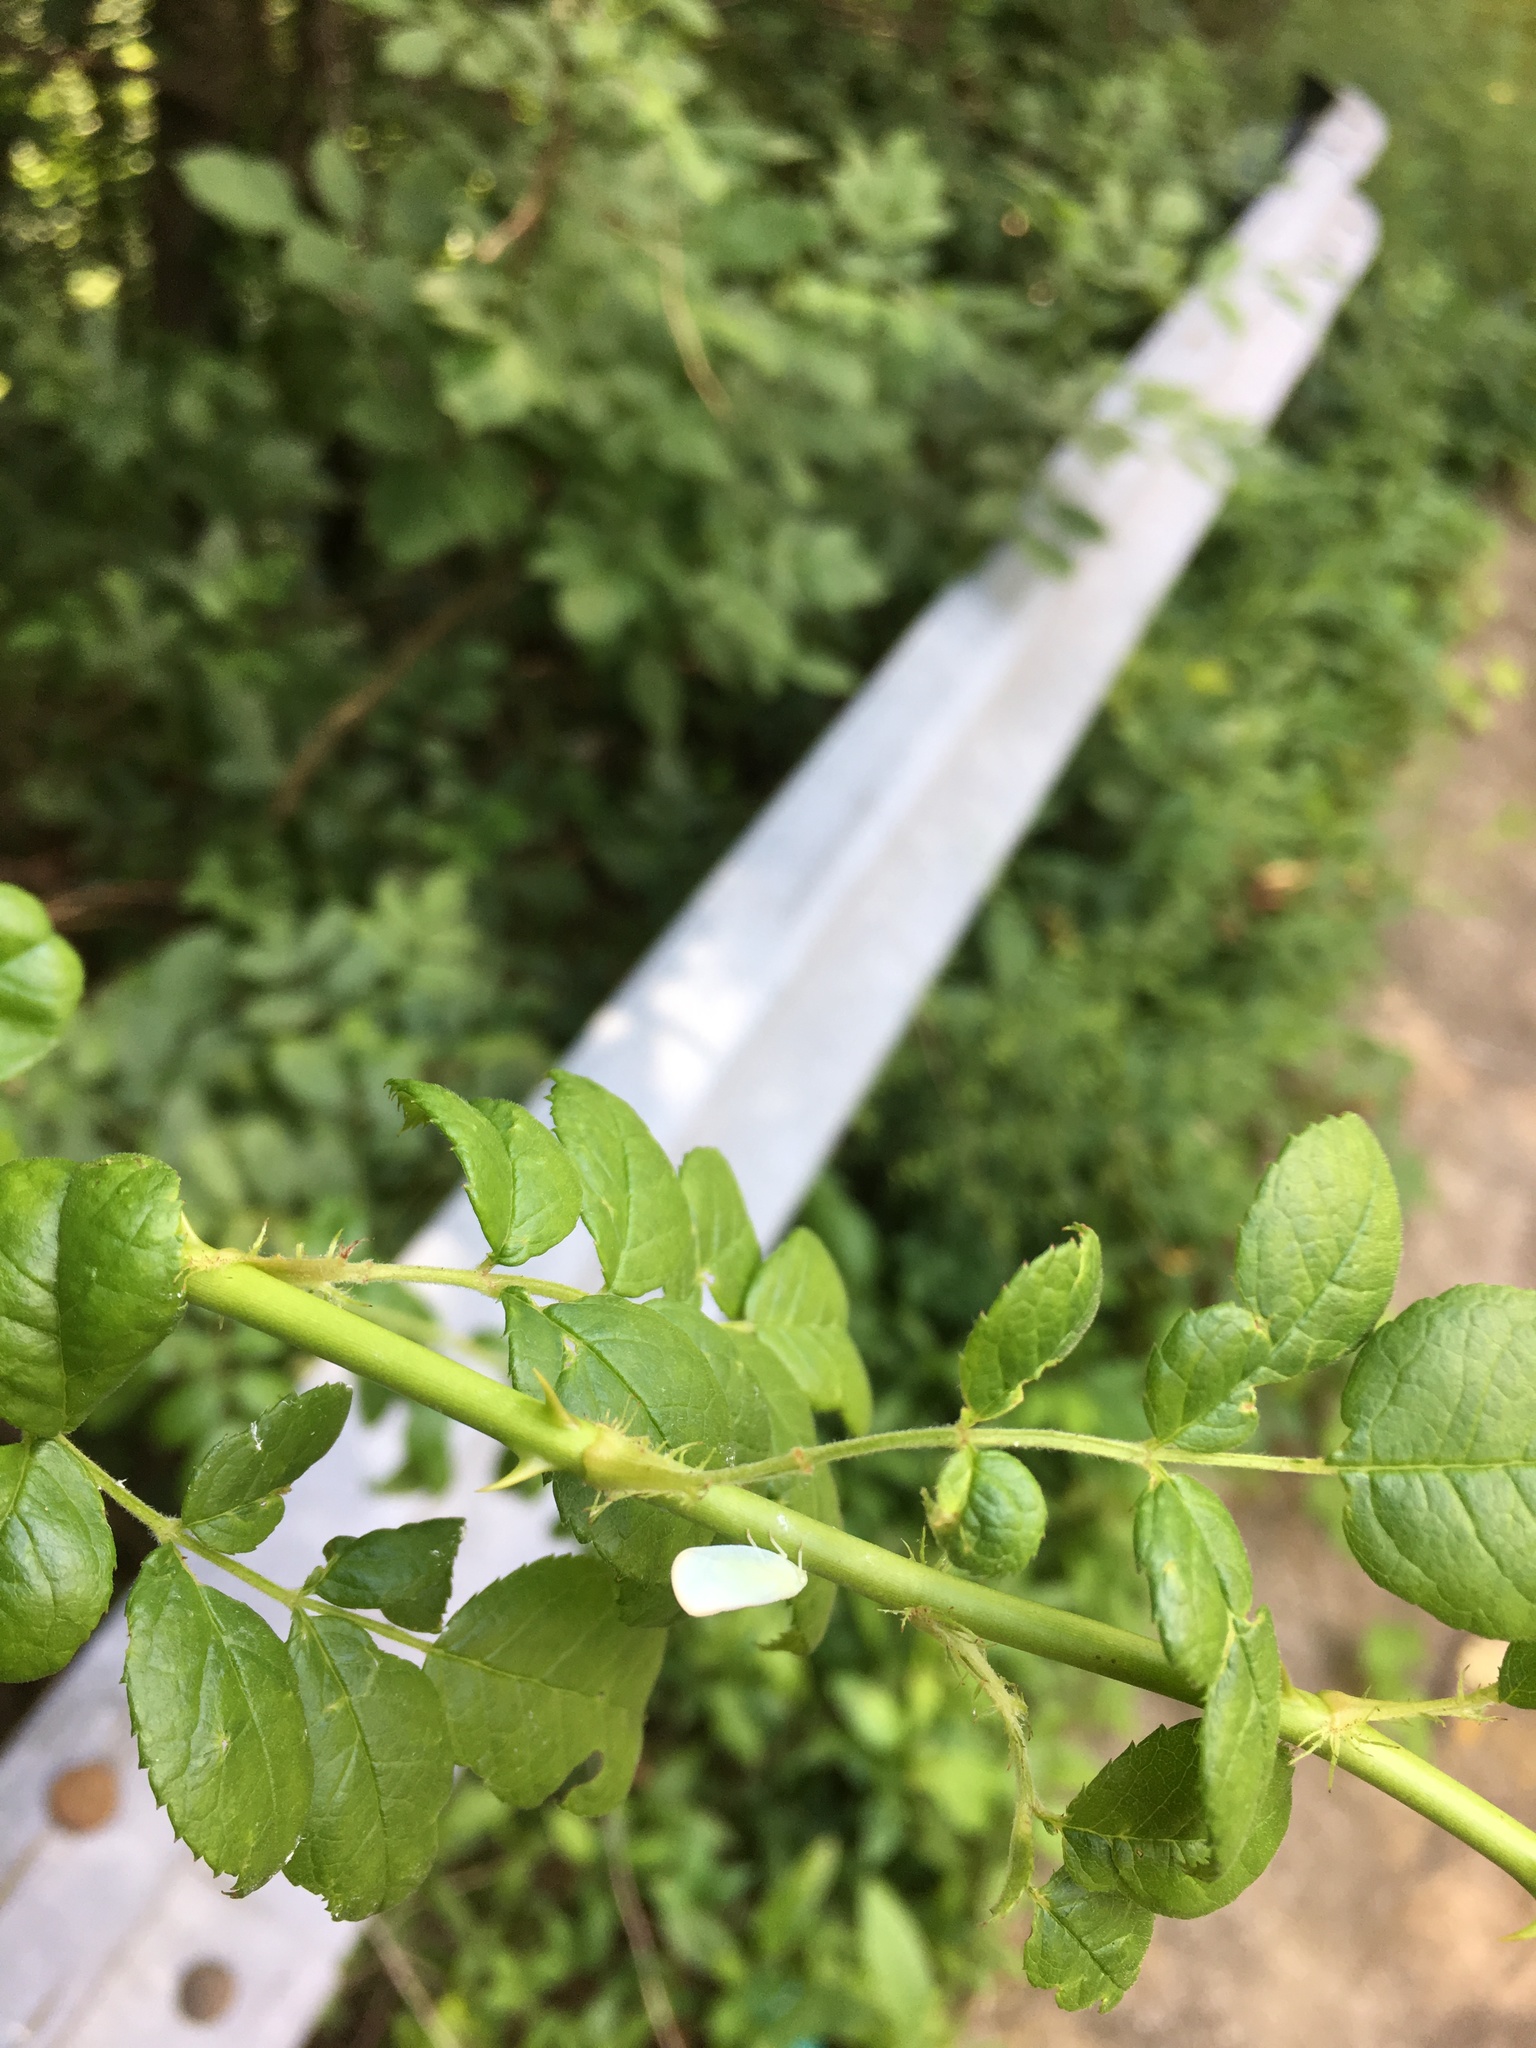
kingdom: Animalia
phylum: Arthropoda
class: Insecta
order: Hemiptera
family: Flatidae
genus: Ormenoides
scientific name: Ormenoides venusta
